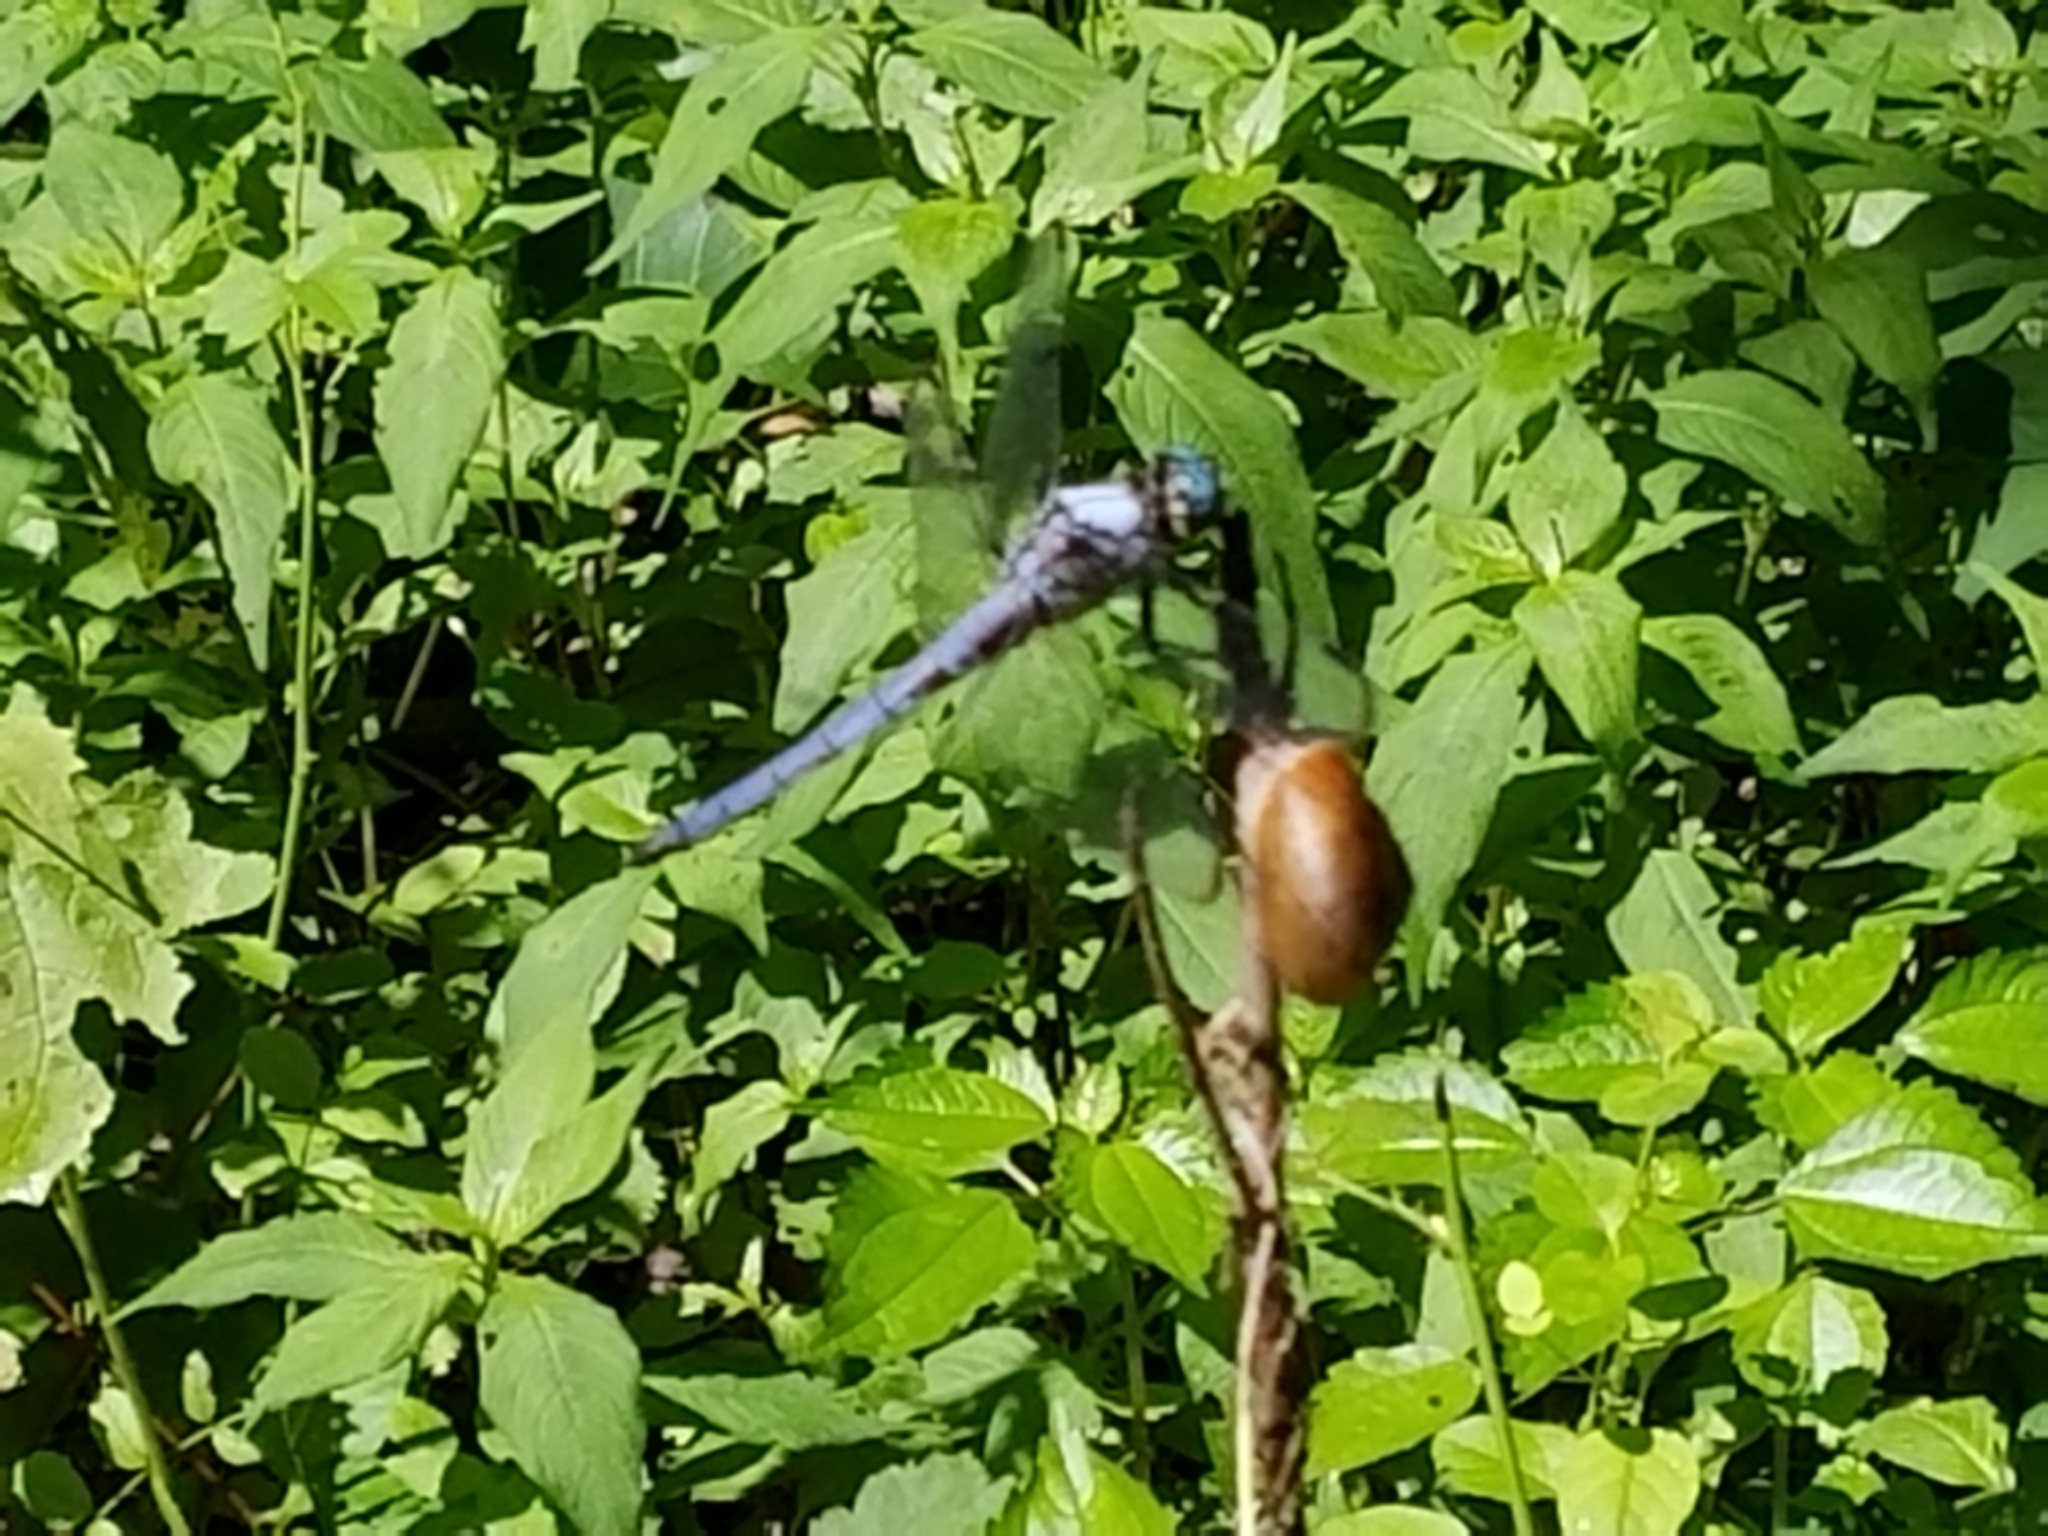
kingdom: Animalia
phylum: Arthropoda
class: Insecta
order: Odonata
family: Libellulidae
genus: Erythemis
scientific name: Erythemis simplicicollis
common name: Eastern pondhawk
